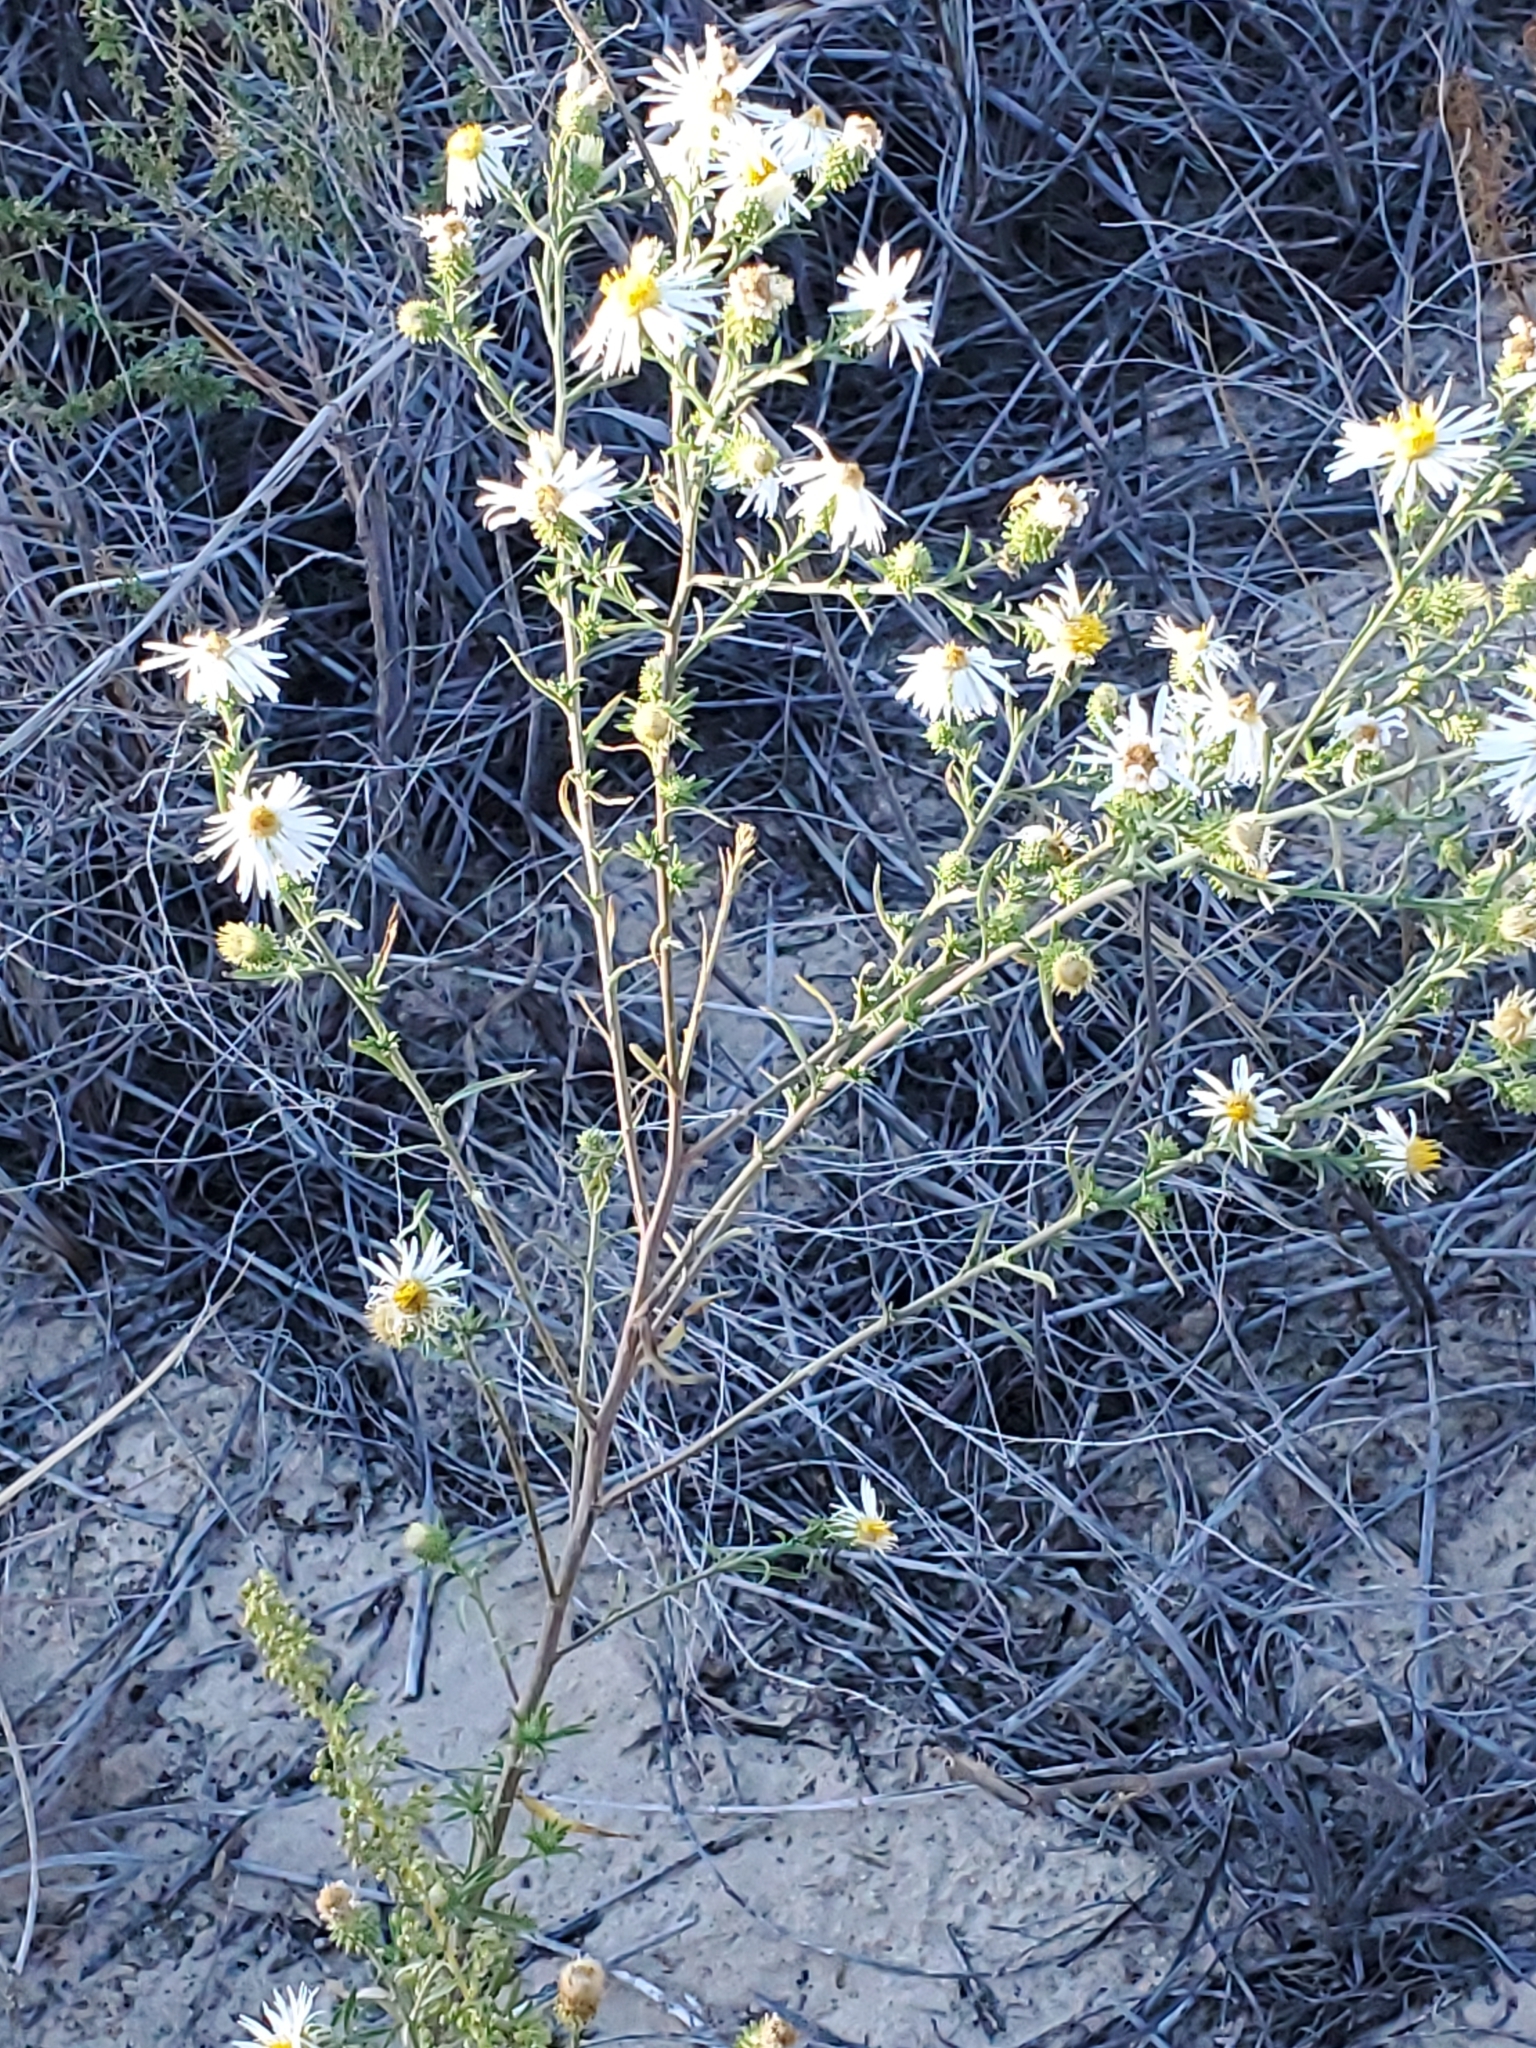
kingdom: Plantae
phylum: Tracheophyta
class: Magnoliopsida
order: Asterales
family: Asteraceae
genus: Dieteria
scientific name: Dieteria canescens
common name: Hoary-aster
